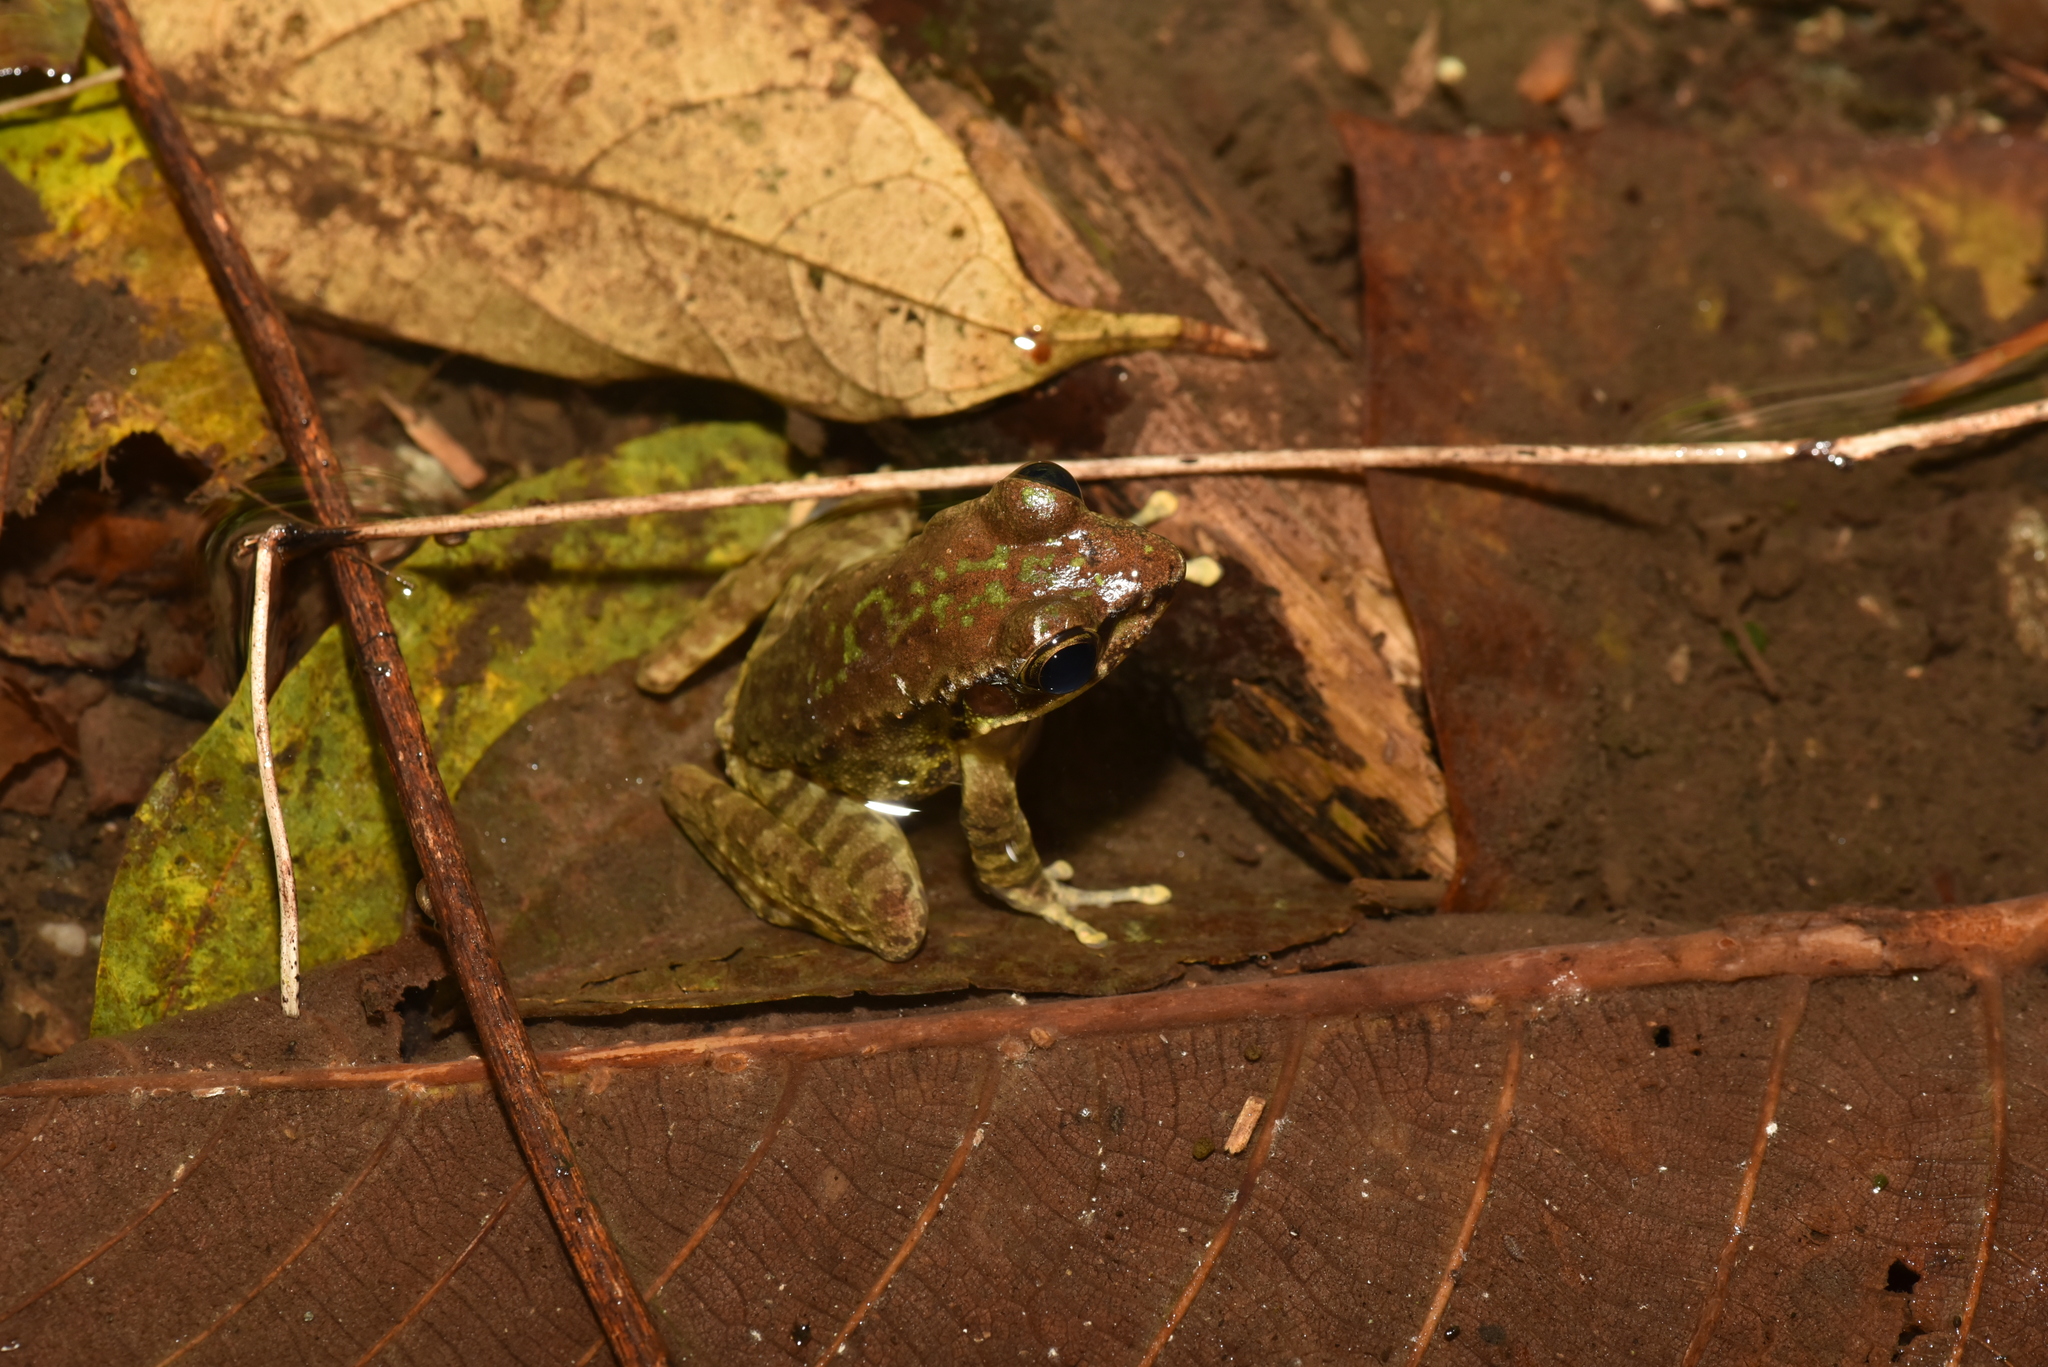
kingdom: Animalia
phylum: Chordata
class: Amphibia
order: Anura
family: Ranidae
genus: Odorrana
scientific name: Odorrana swinhoana
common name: Bangkimtsing frog
